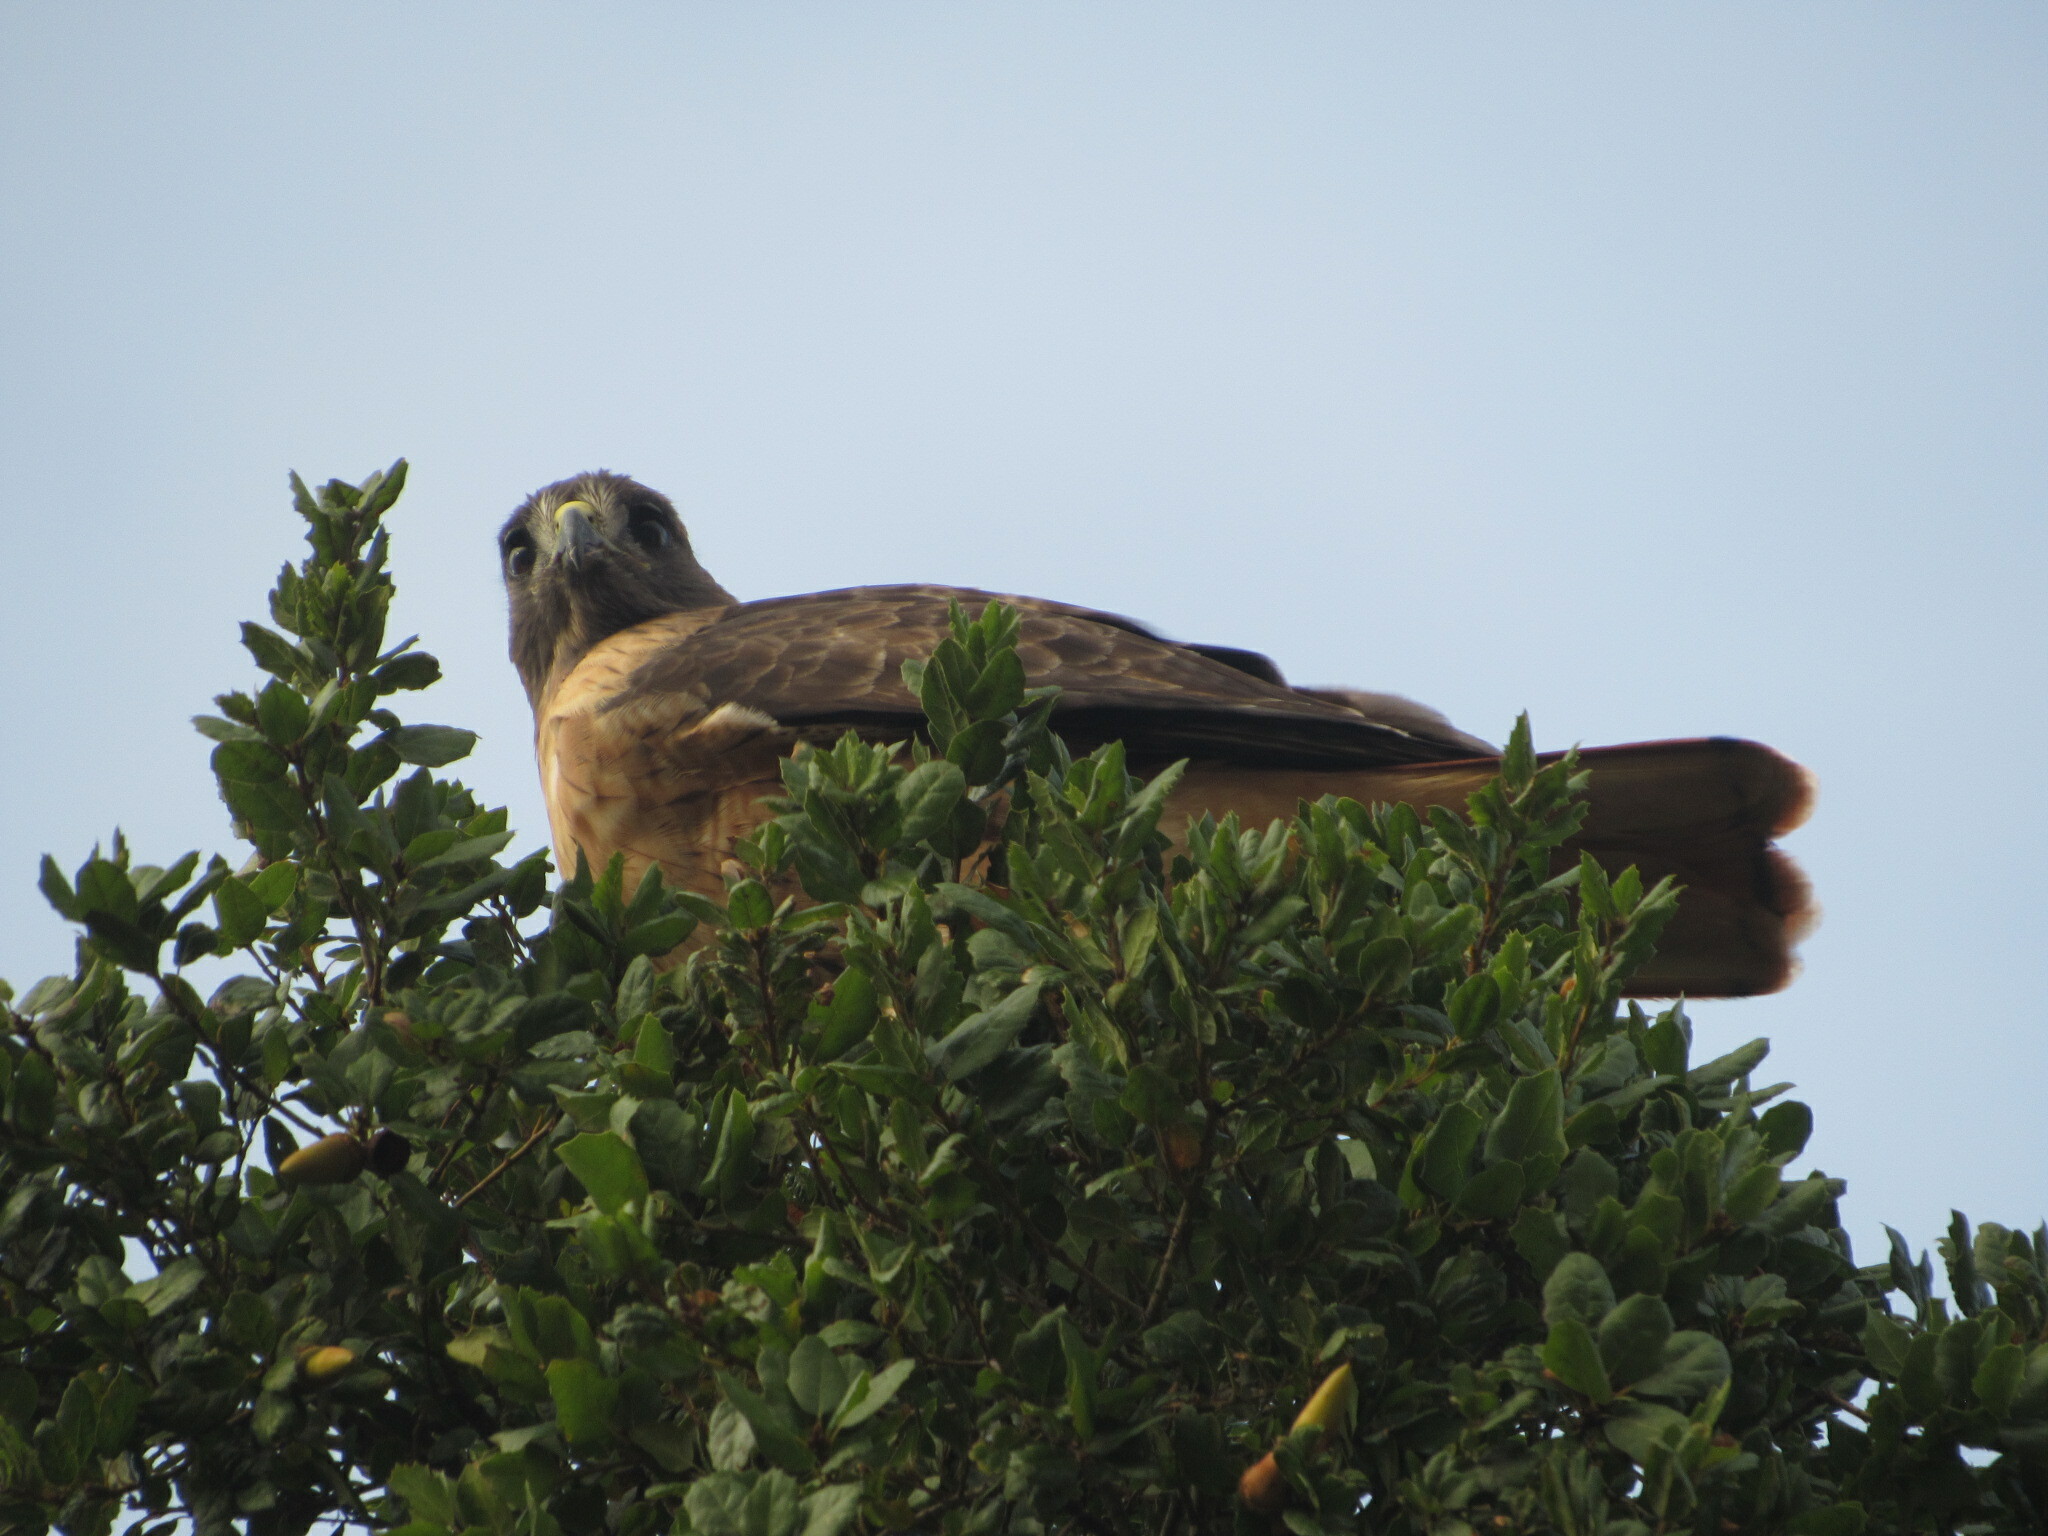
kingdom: Animalia
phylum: Chordata
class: Aves
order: Accipitriformes
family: Accipitridae
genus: Buteo
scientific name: Buteo jamaicensis
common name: Red-tailed hawk
